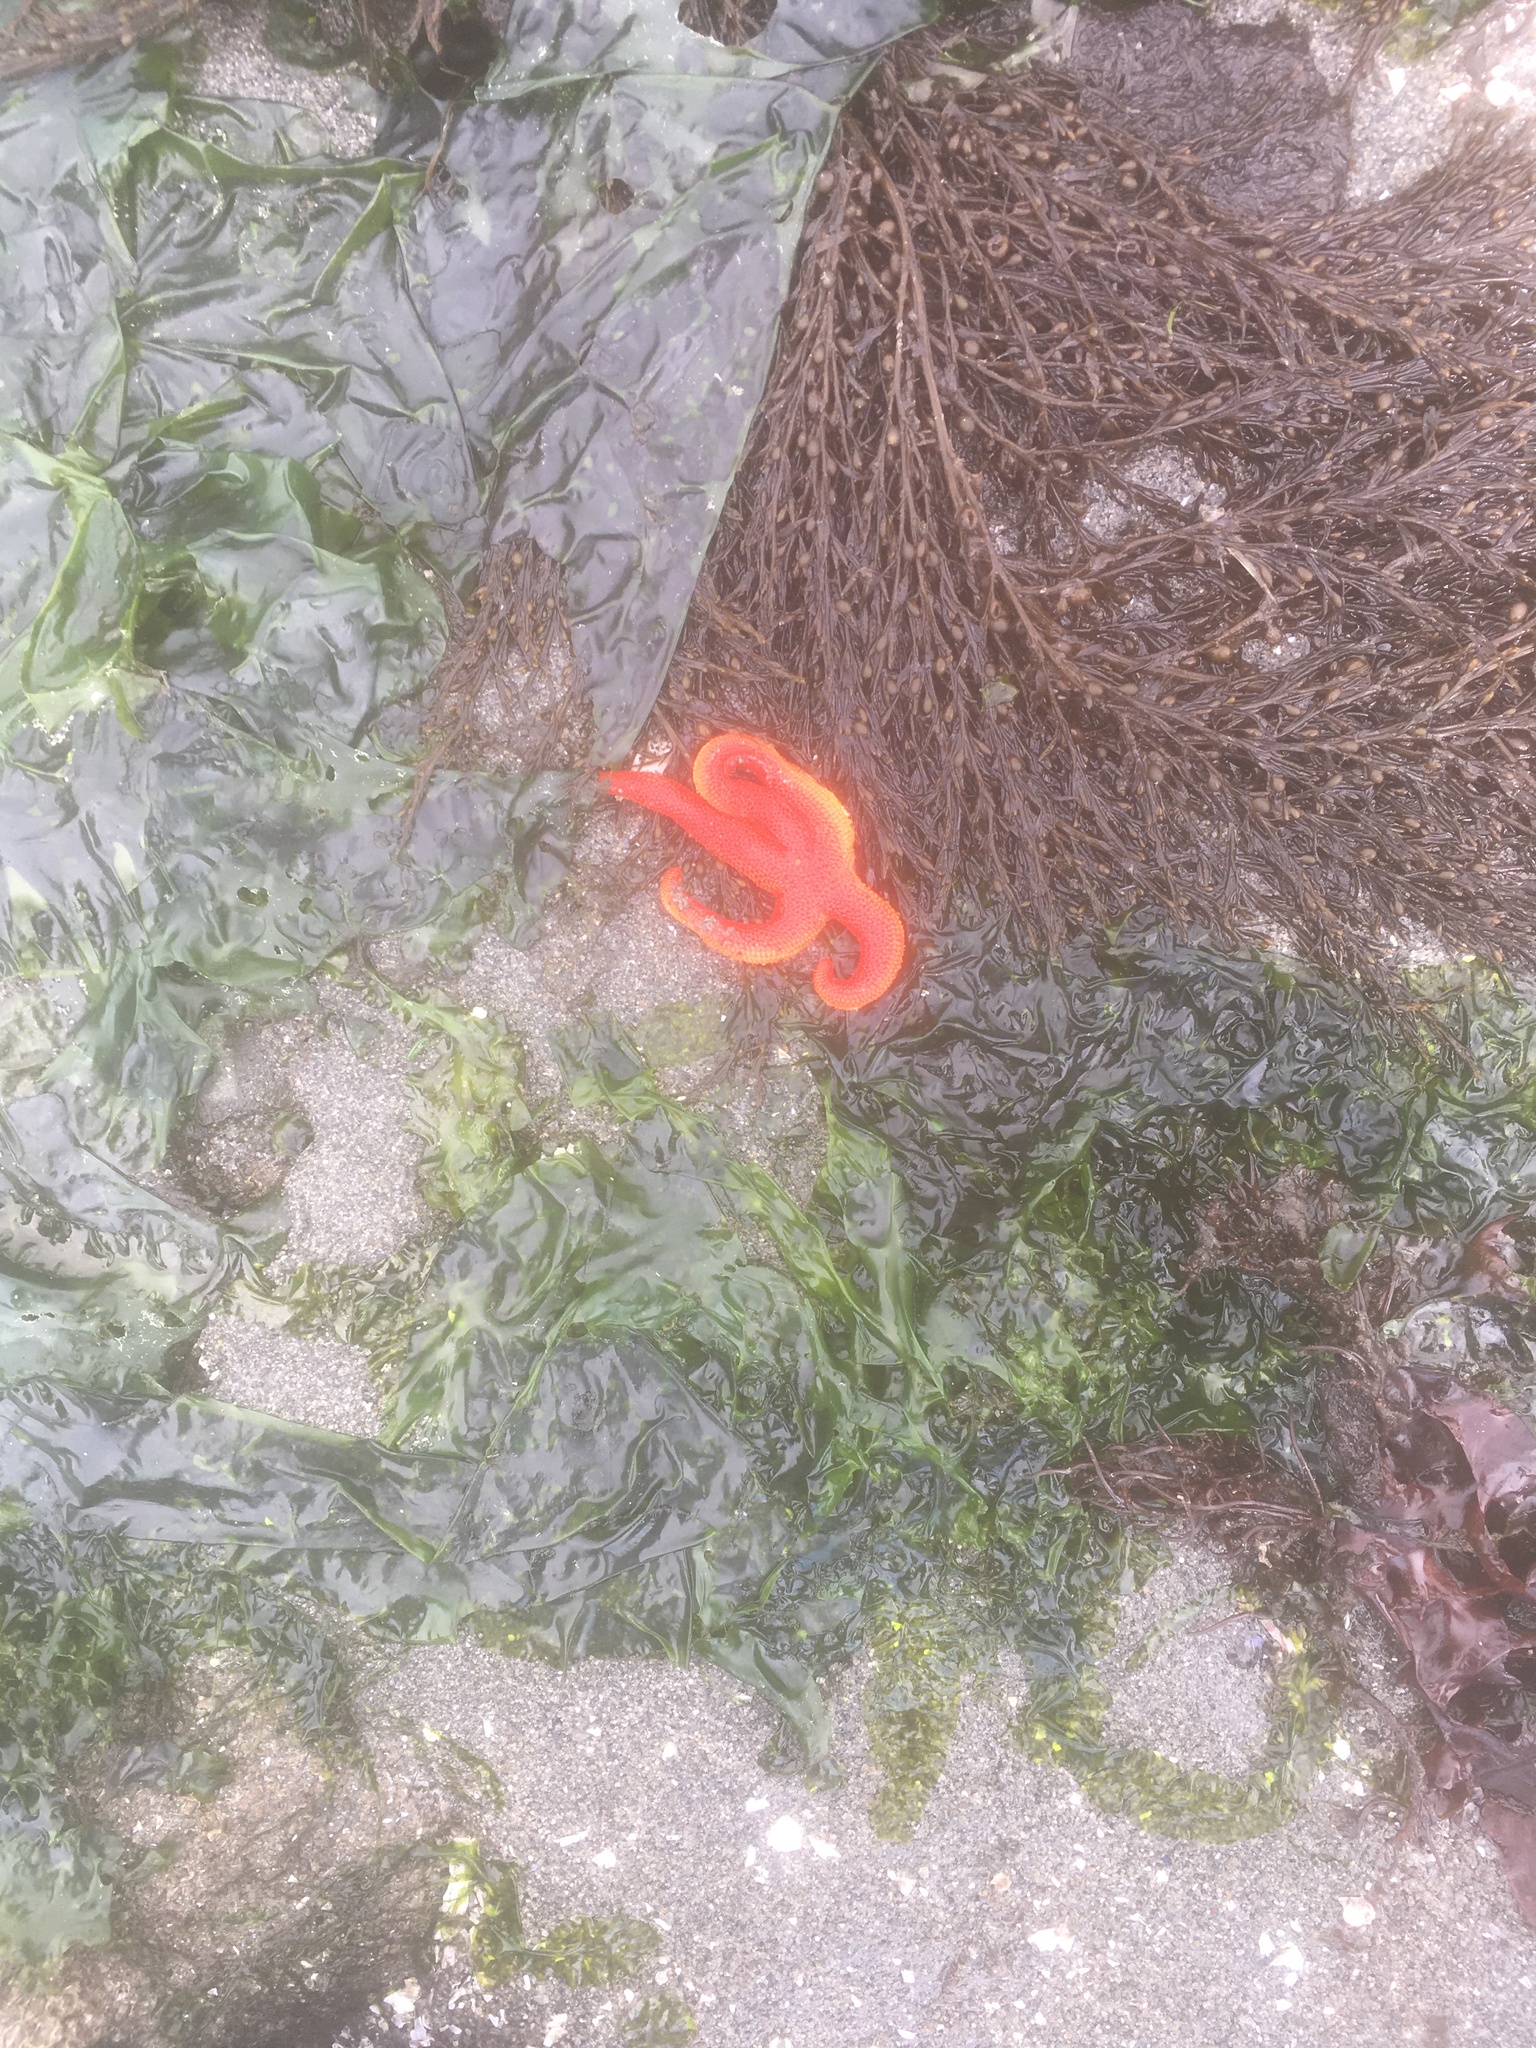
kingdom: Animalia
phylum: Echinodermata
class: Asteroidea
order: Spinulosida
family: Echinasteridae
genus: Henricia
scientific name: Henricia leviuscula
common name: Pacific blood star
